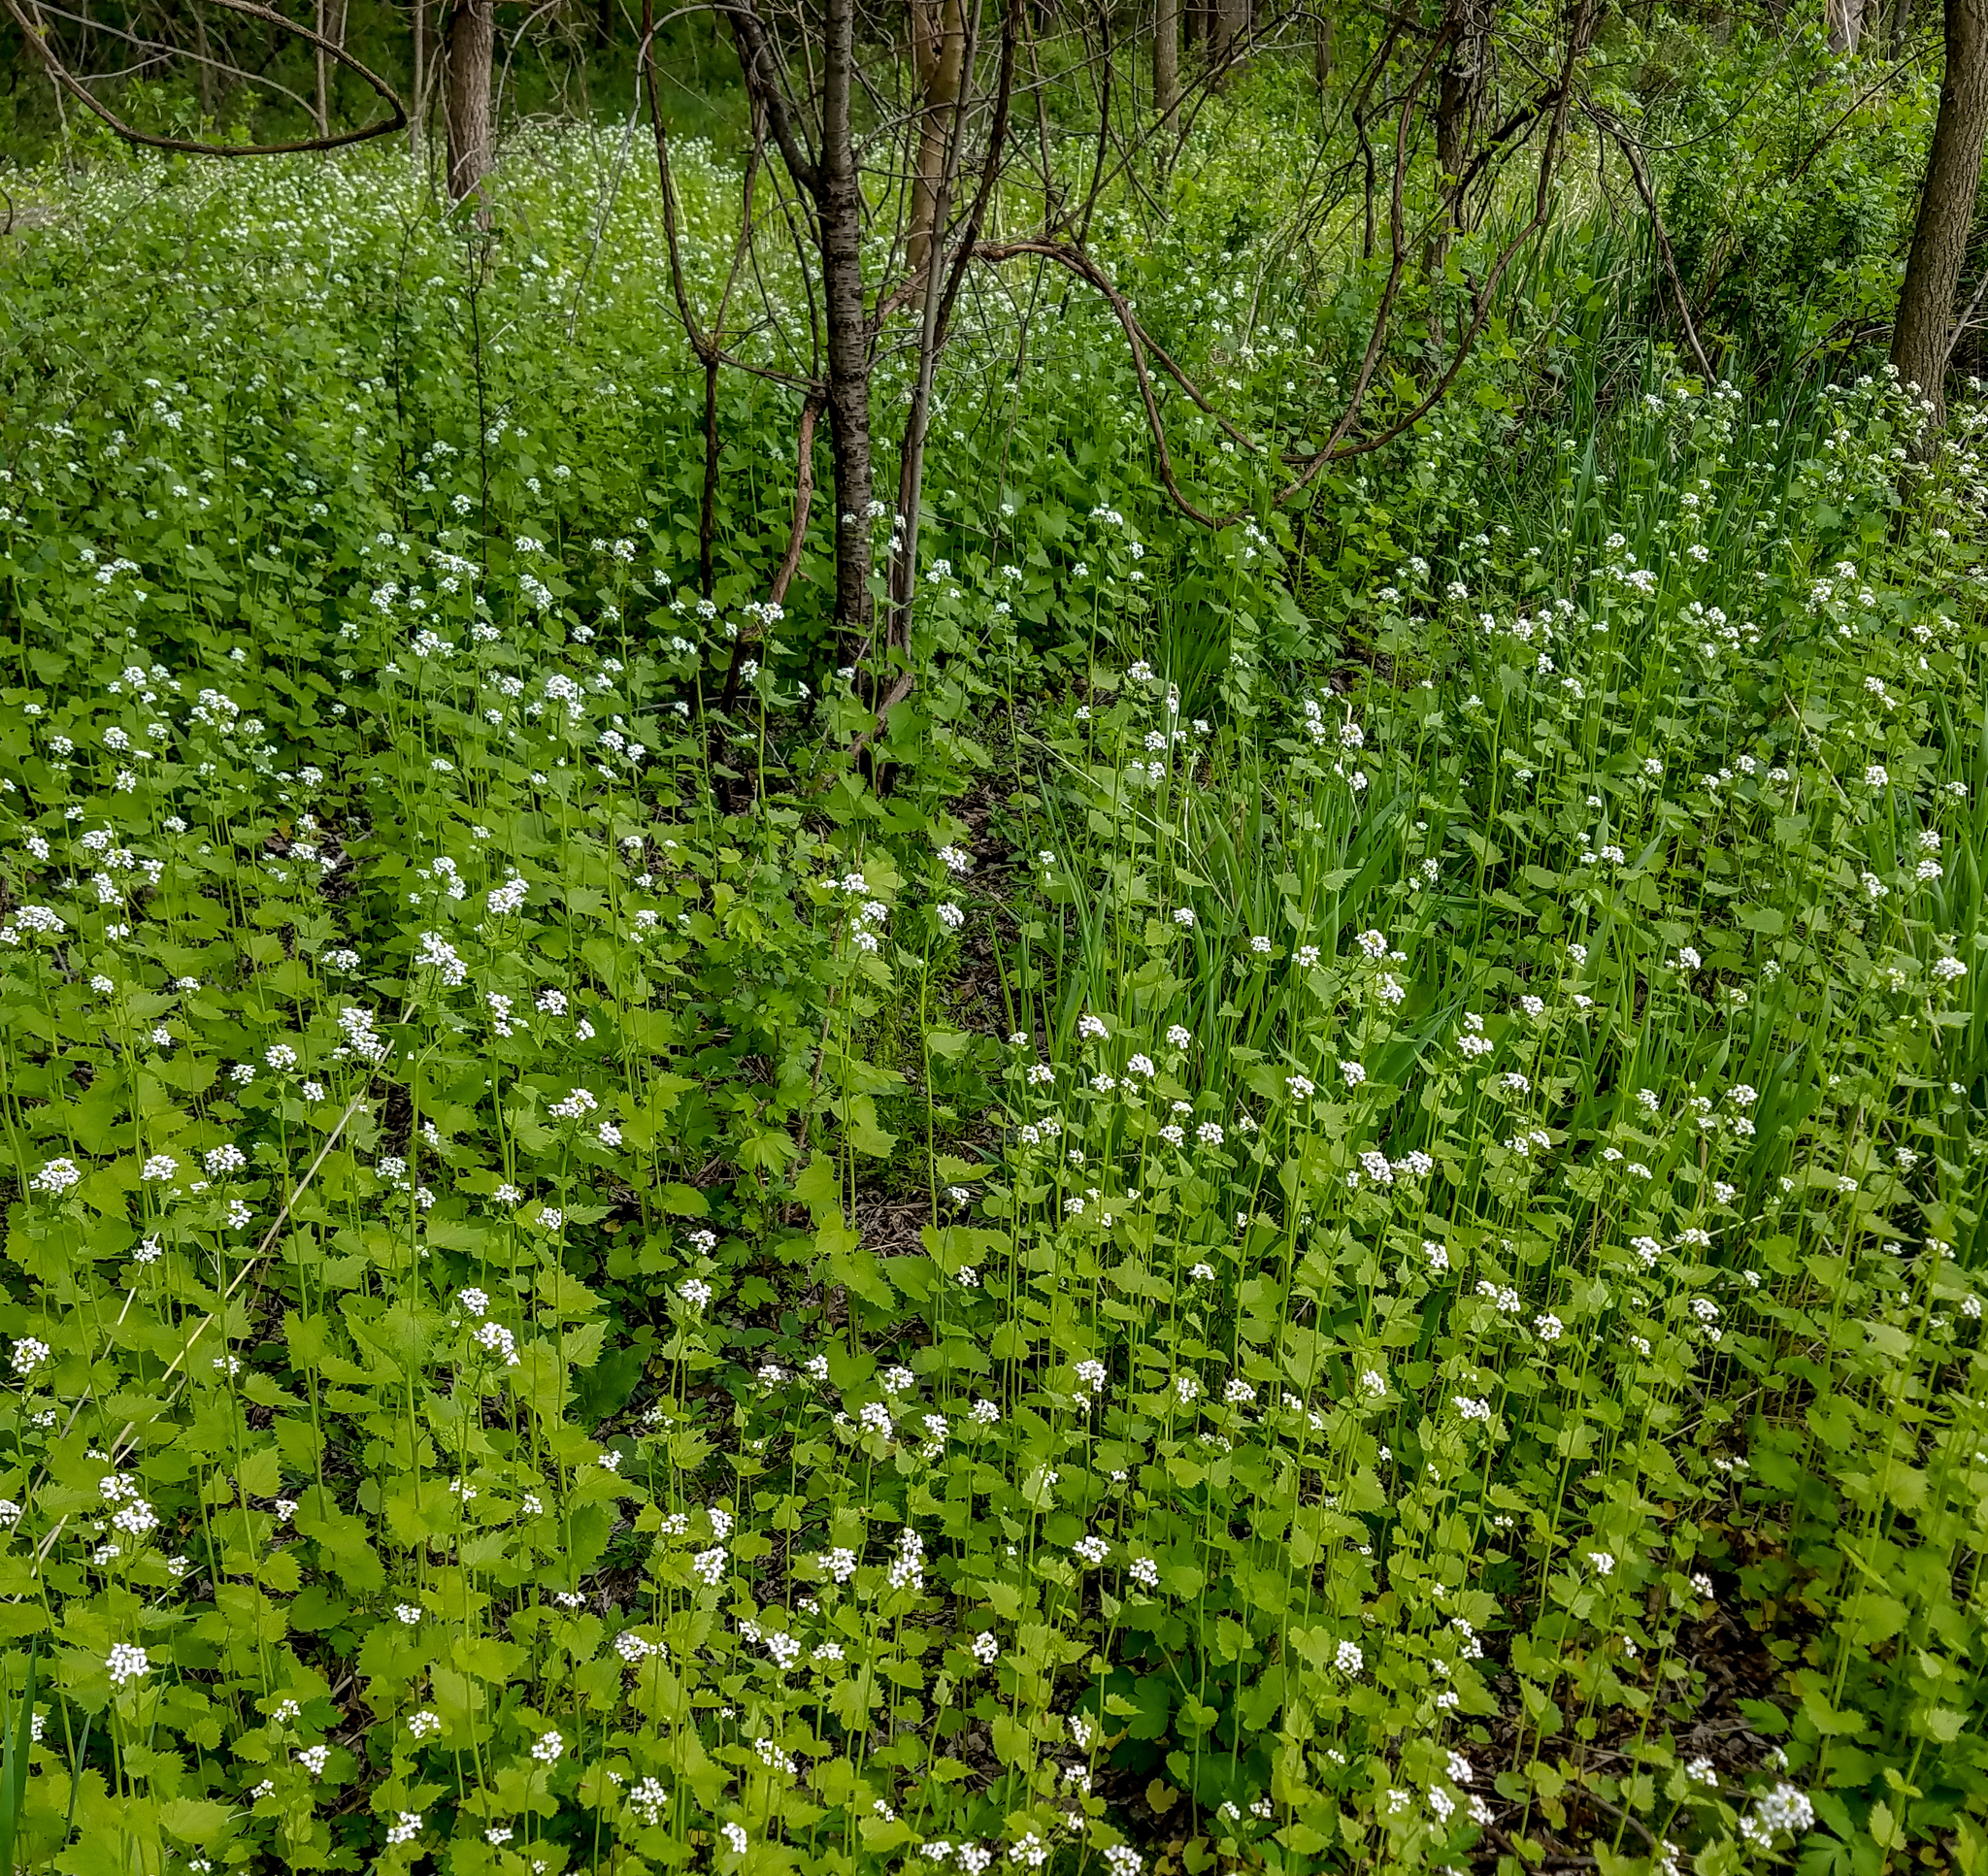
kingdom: Plantae
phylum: Tracheophyta
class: Magnoliopsida
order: Brassicales
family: Brassicaceae
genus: Alliaria
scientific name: Alliaria petiolata
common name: Garlic mustard
